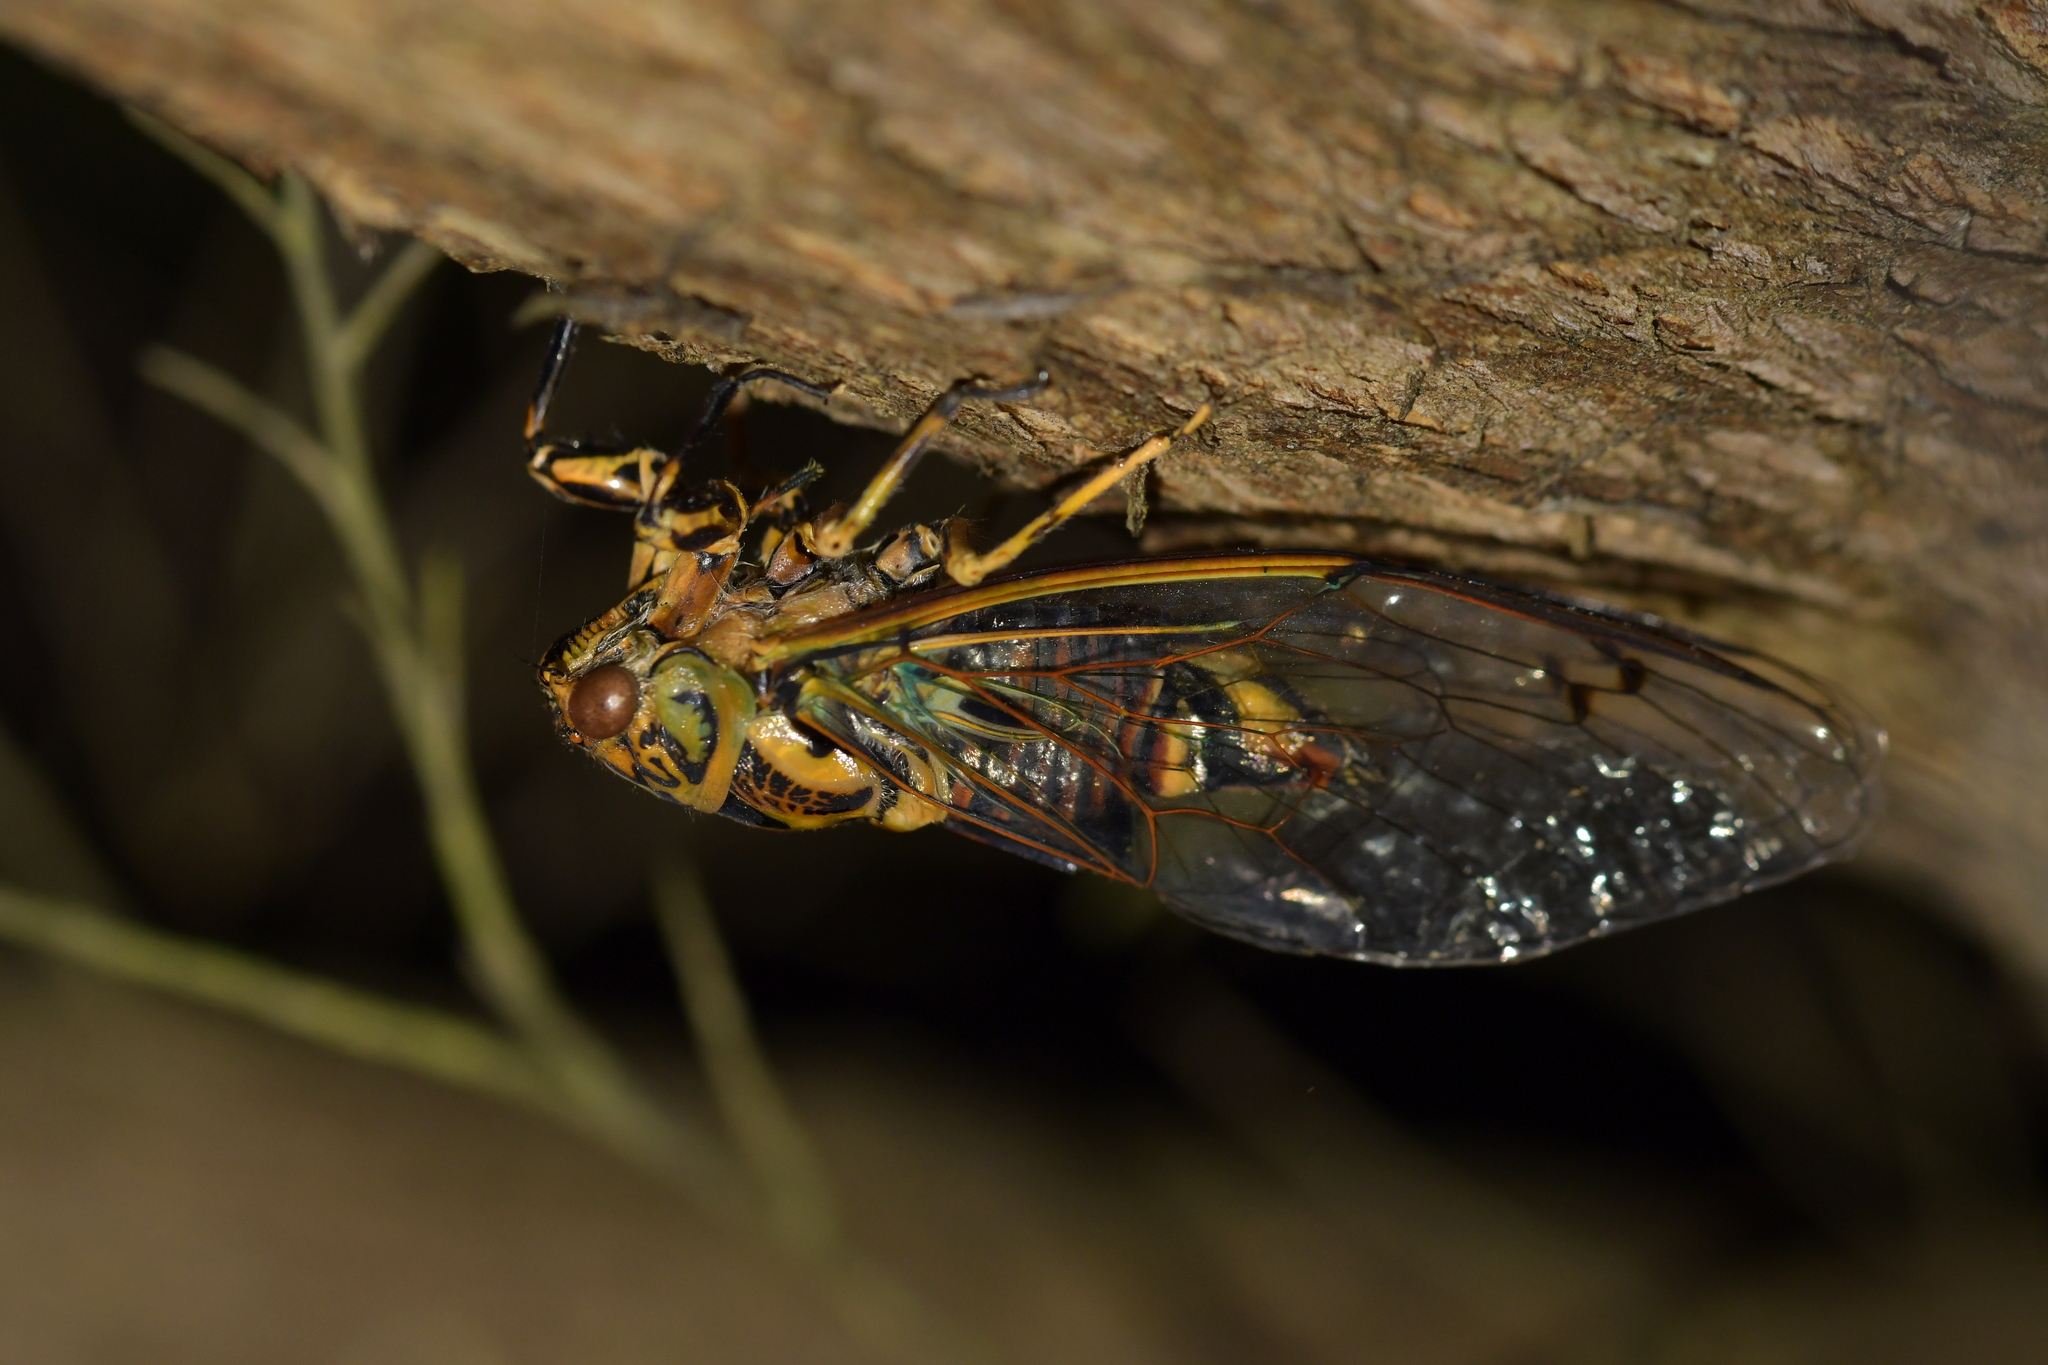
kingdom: Animalia
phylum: Arthropoda
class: Insecta
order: Hemiptera
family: Cicadidae
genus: Amphipsalta
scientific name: Amphipsalta zelandica
